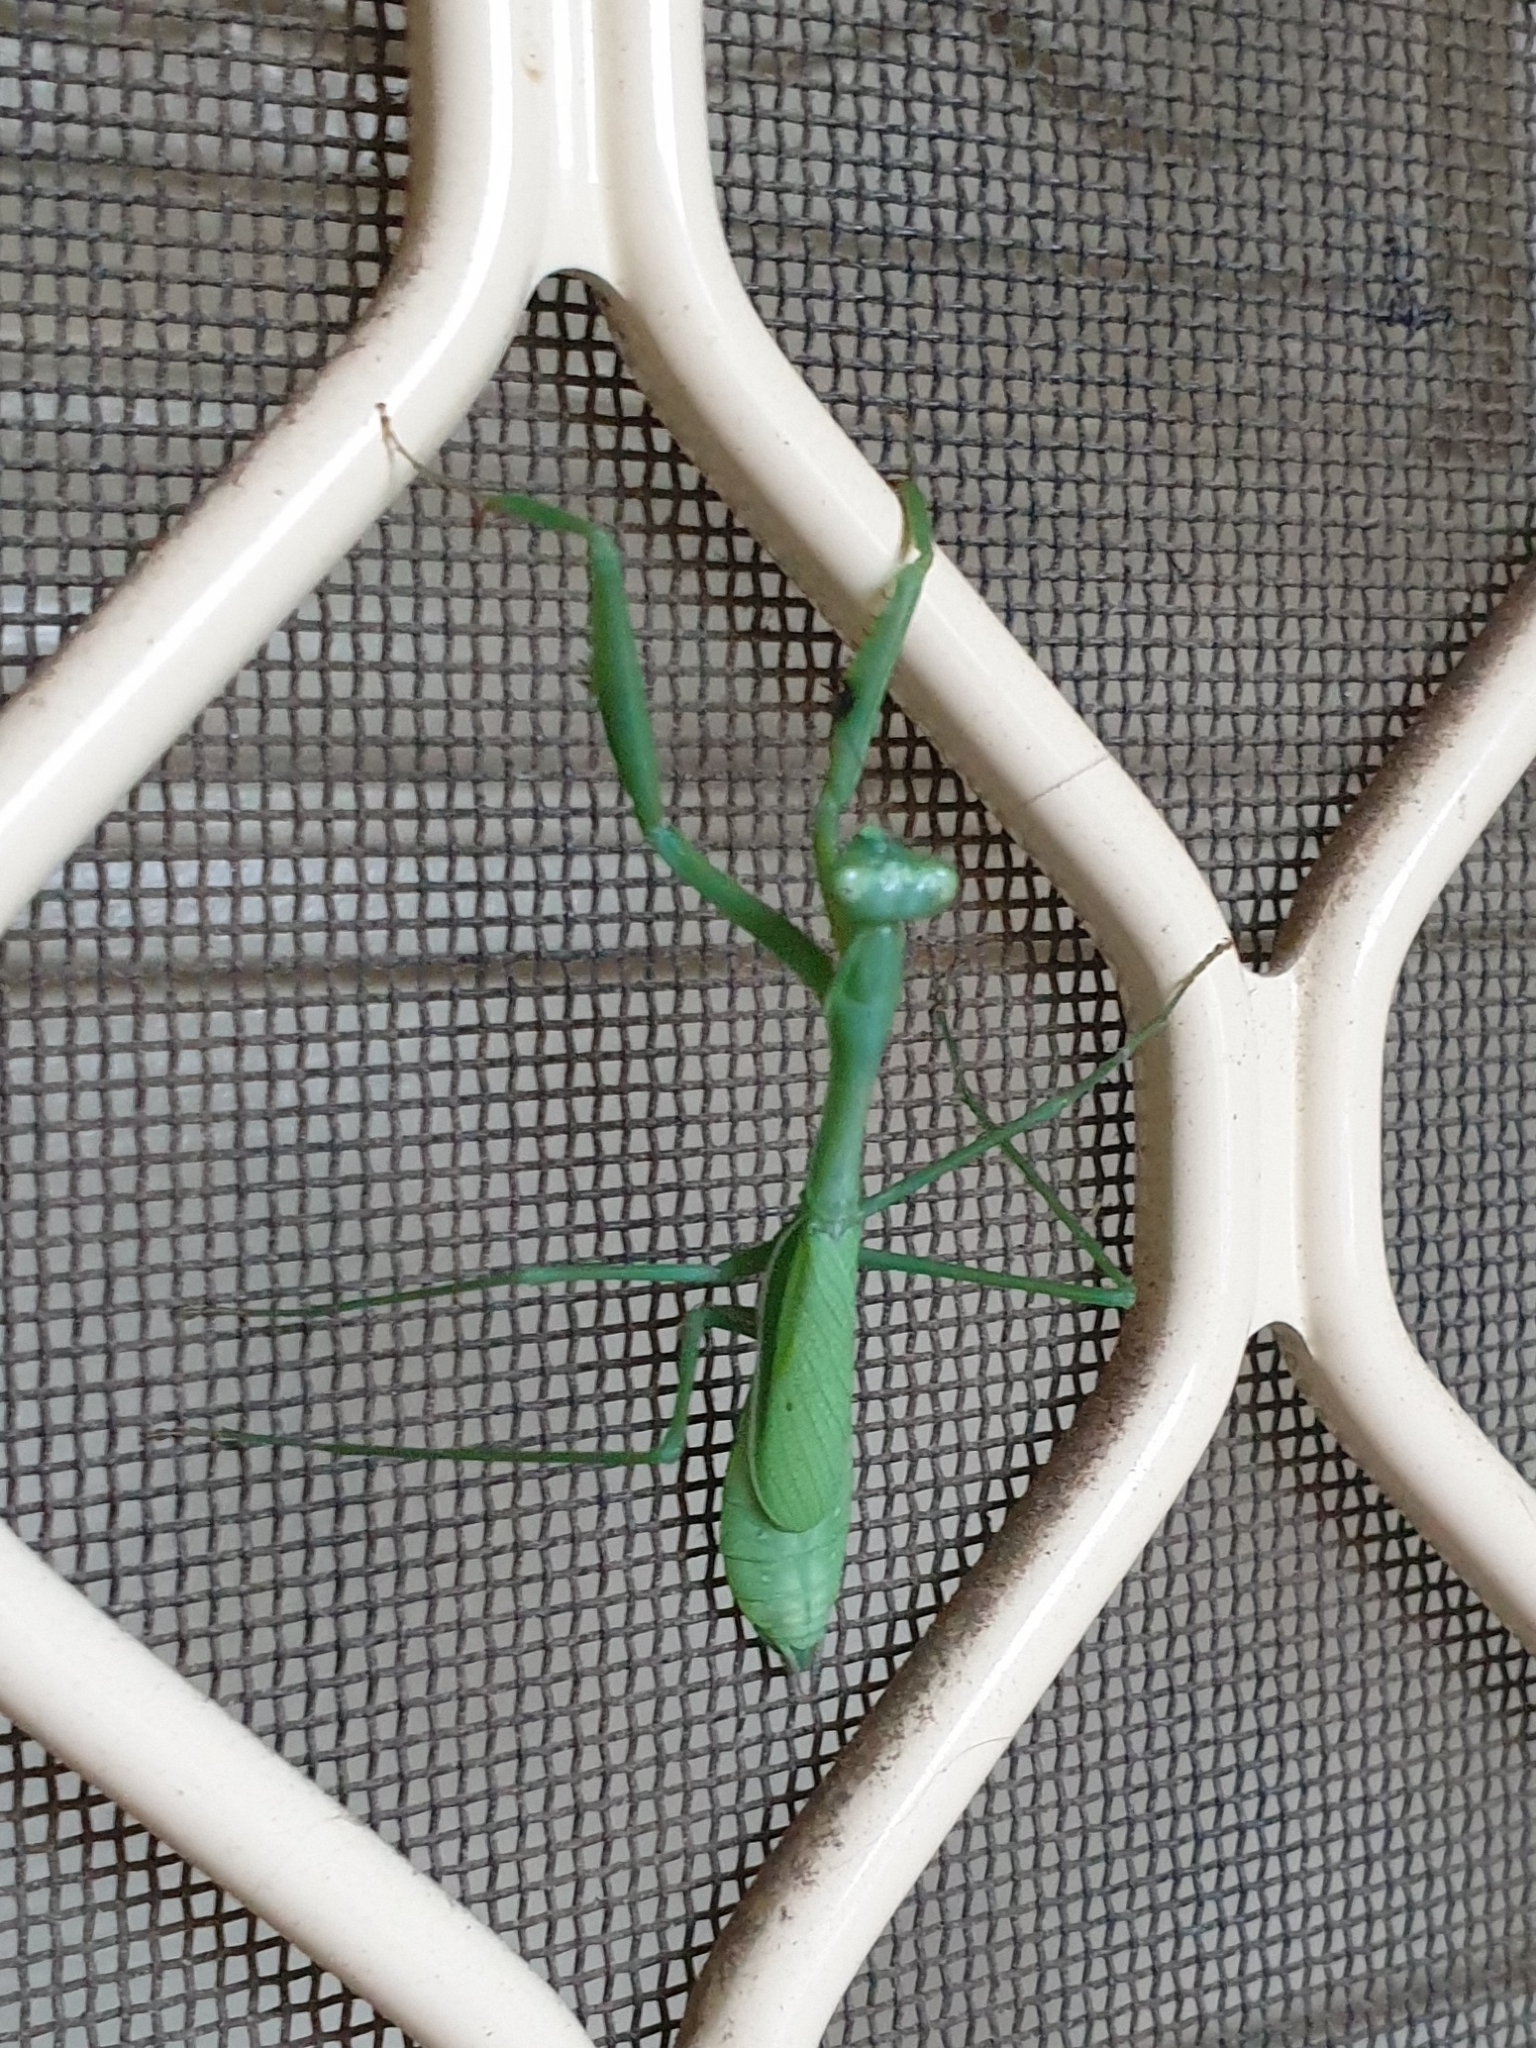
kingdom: Animalia
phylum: Arthropoda
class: Insecta
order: Mantodea
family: Mantidae
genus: Pseudomantis
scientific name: Pseudomantis albofimbriata
